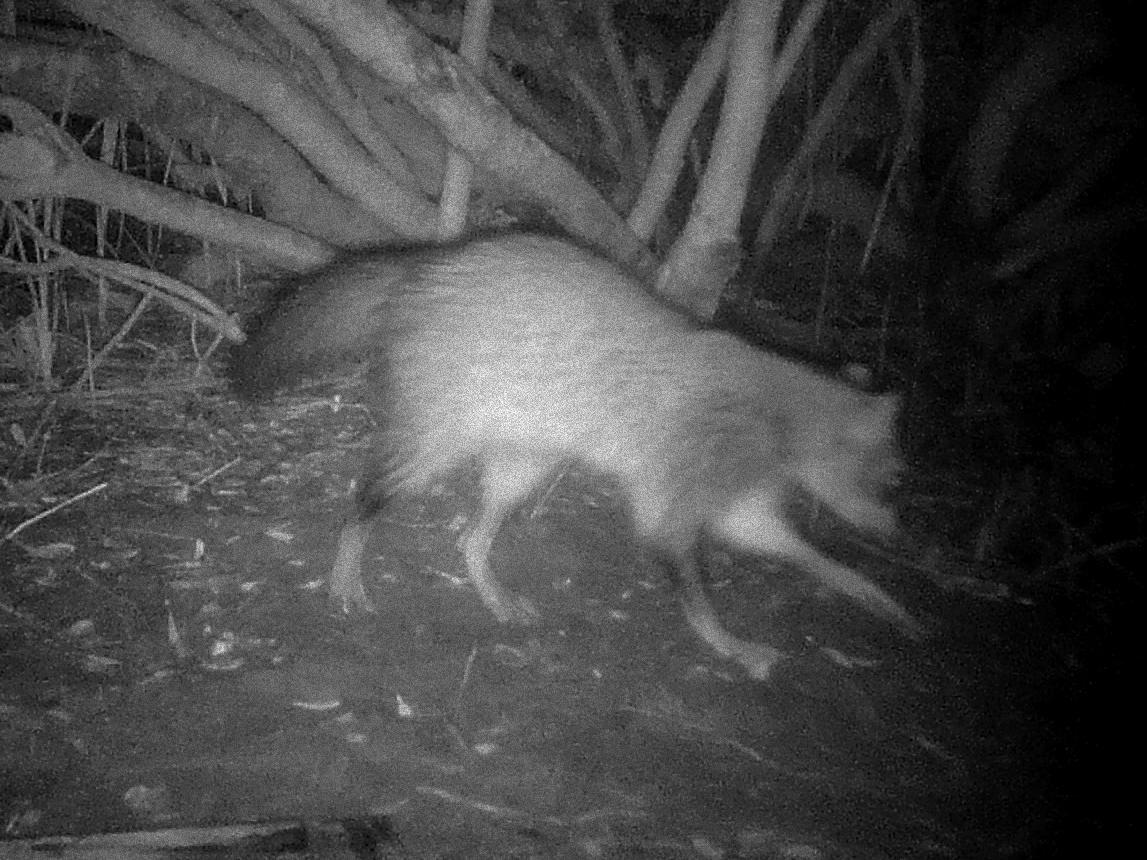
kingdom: Animalia
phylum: Chordata
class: Mammalia
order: Carnivora
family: Procyonidae
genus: Procyon
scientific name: Procyon cancrivorus
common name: Crab-eating raccoon
